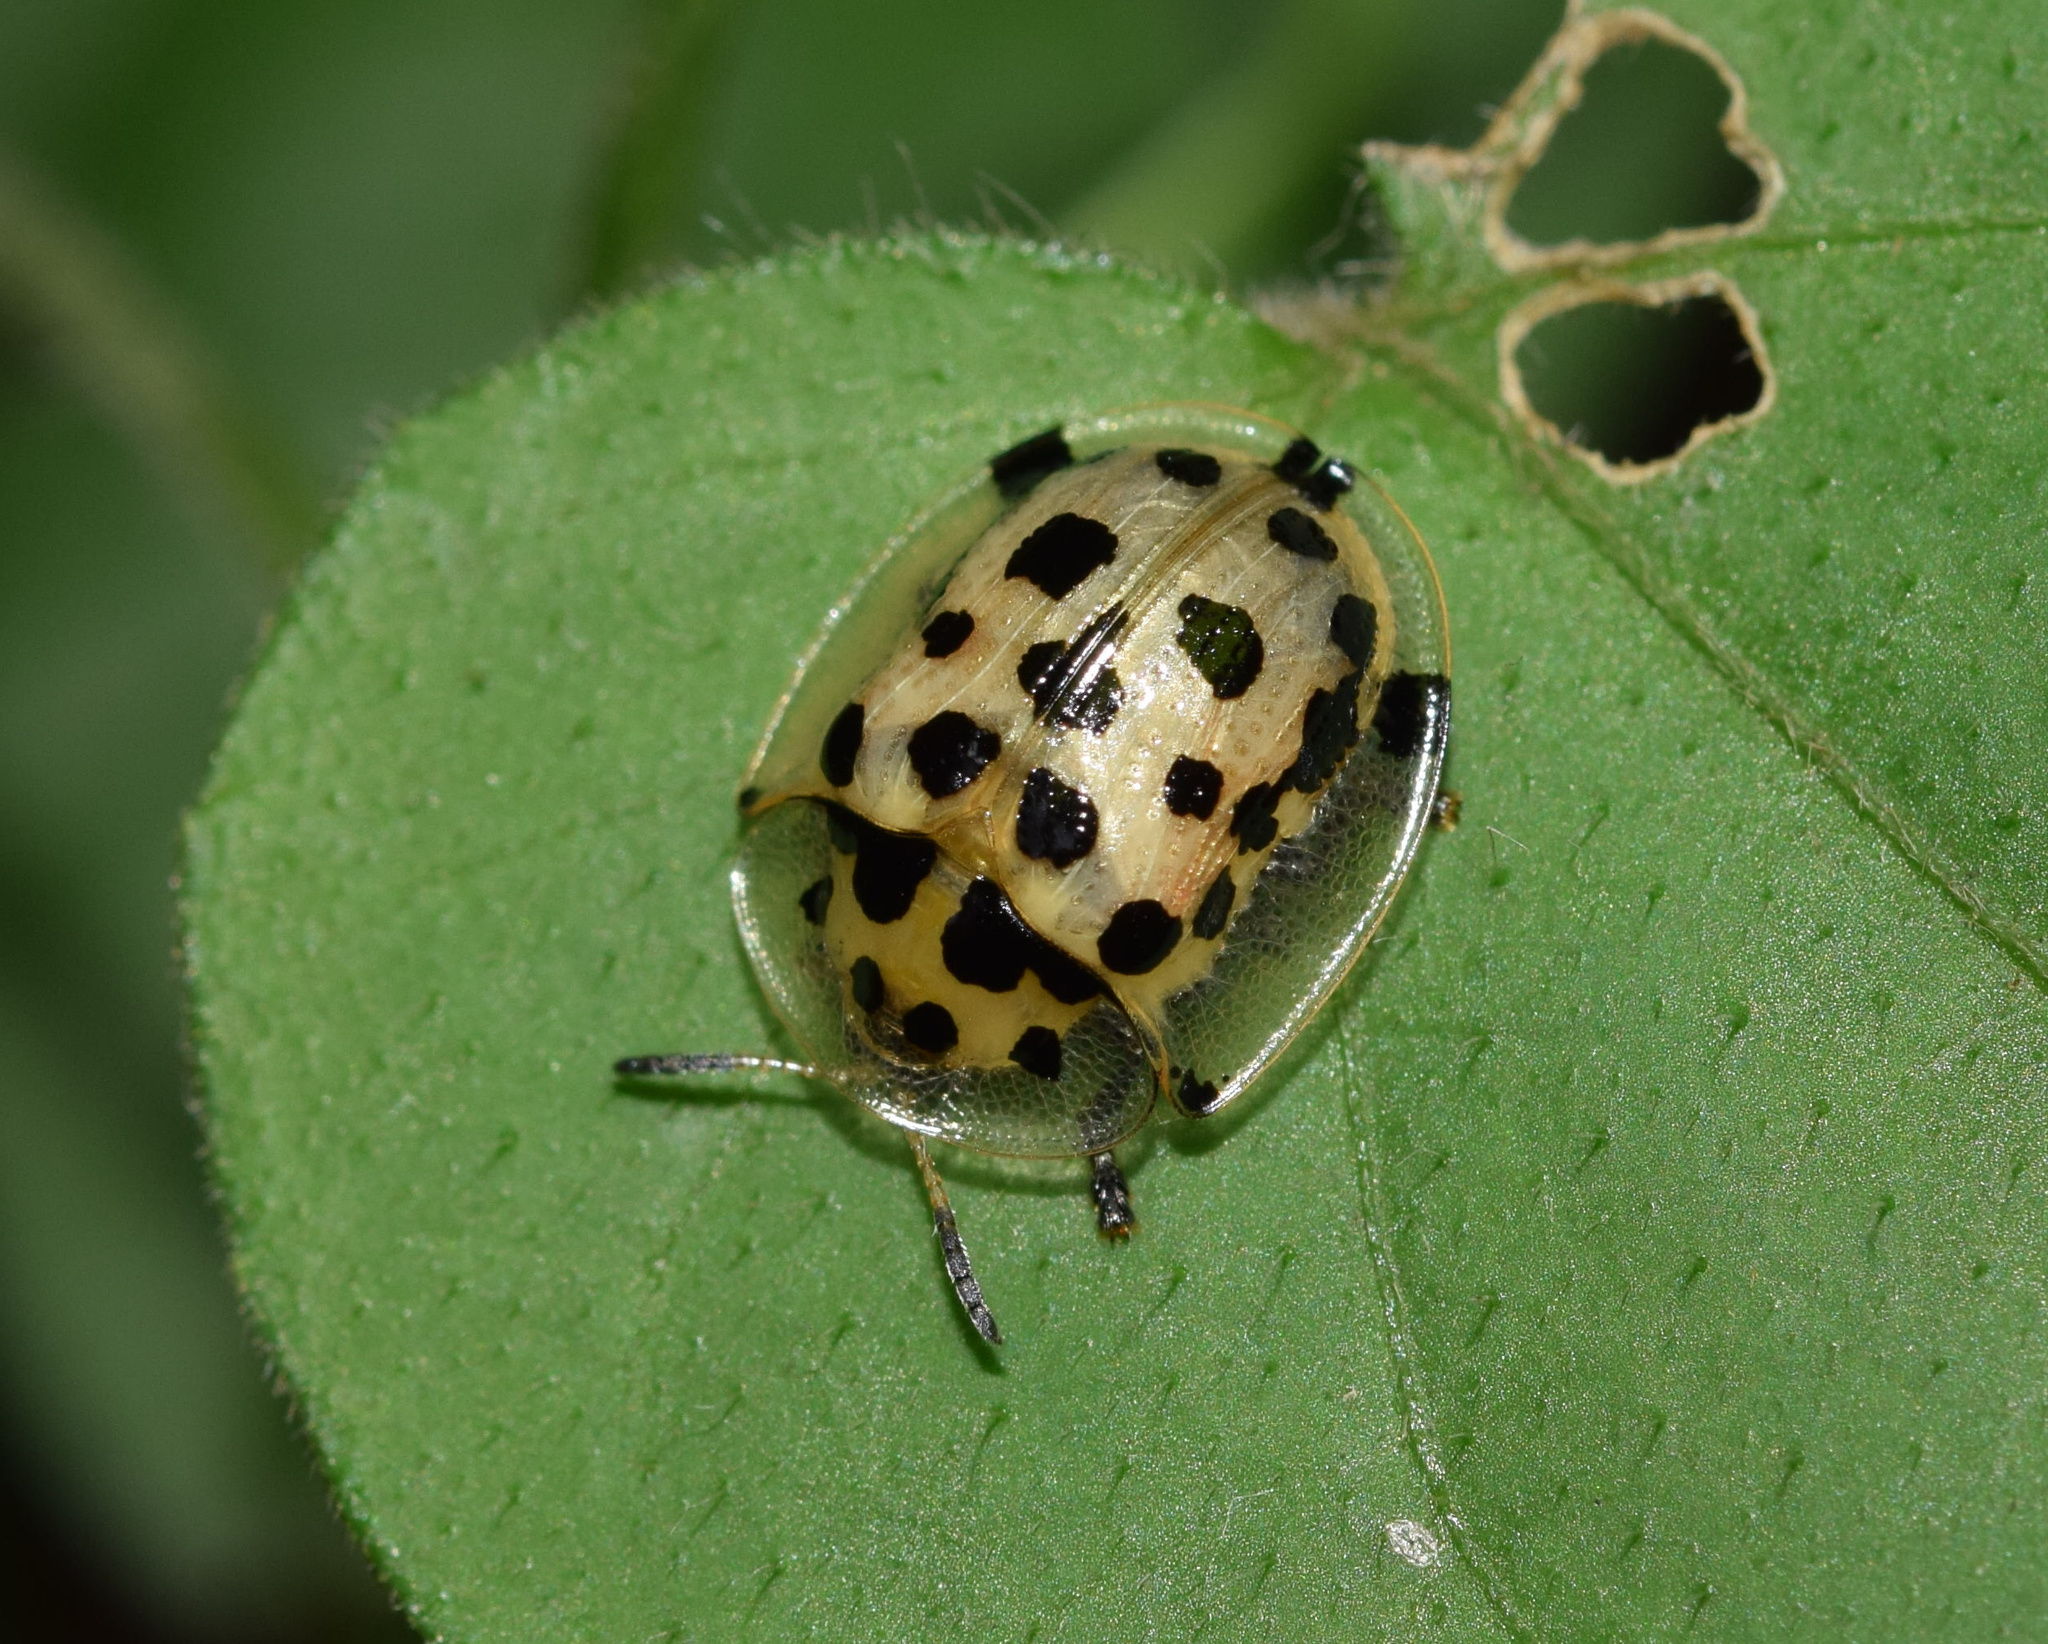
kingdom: Animalia
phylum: Arthropoda
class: Insecta
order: Coleoptera
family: Chrysomelidae
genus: Aethiopocassis
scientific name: Aethiopocassis vigintimaculata
